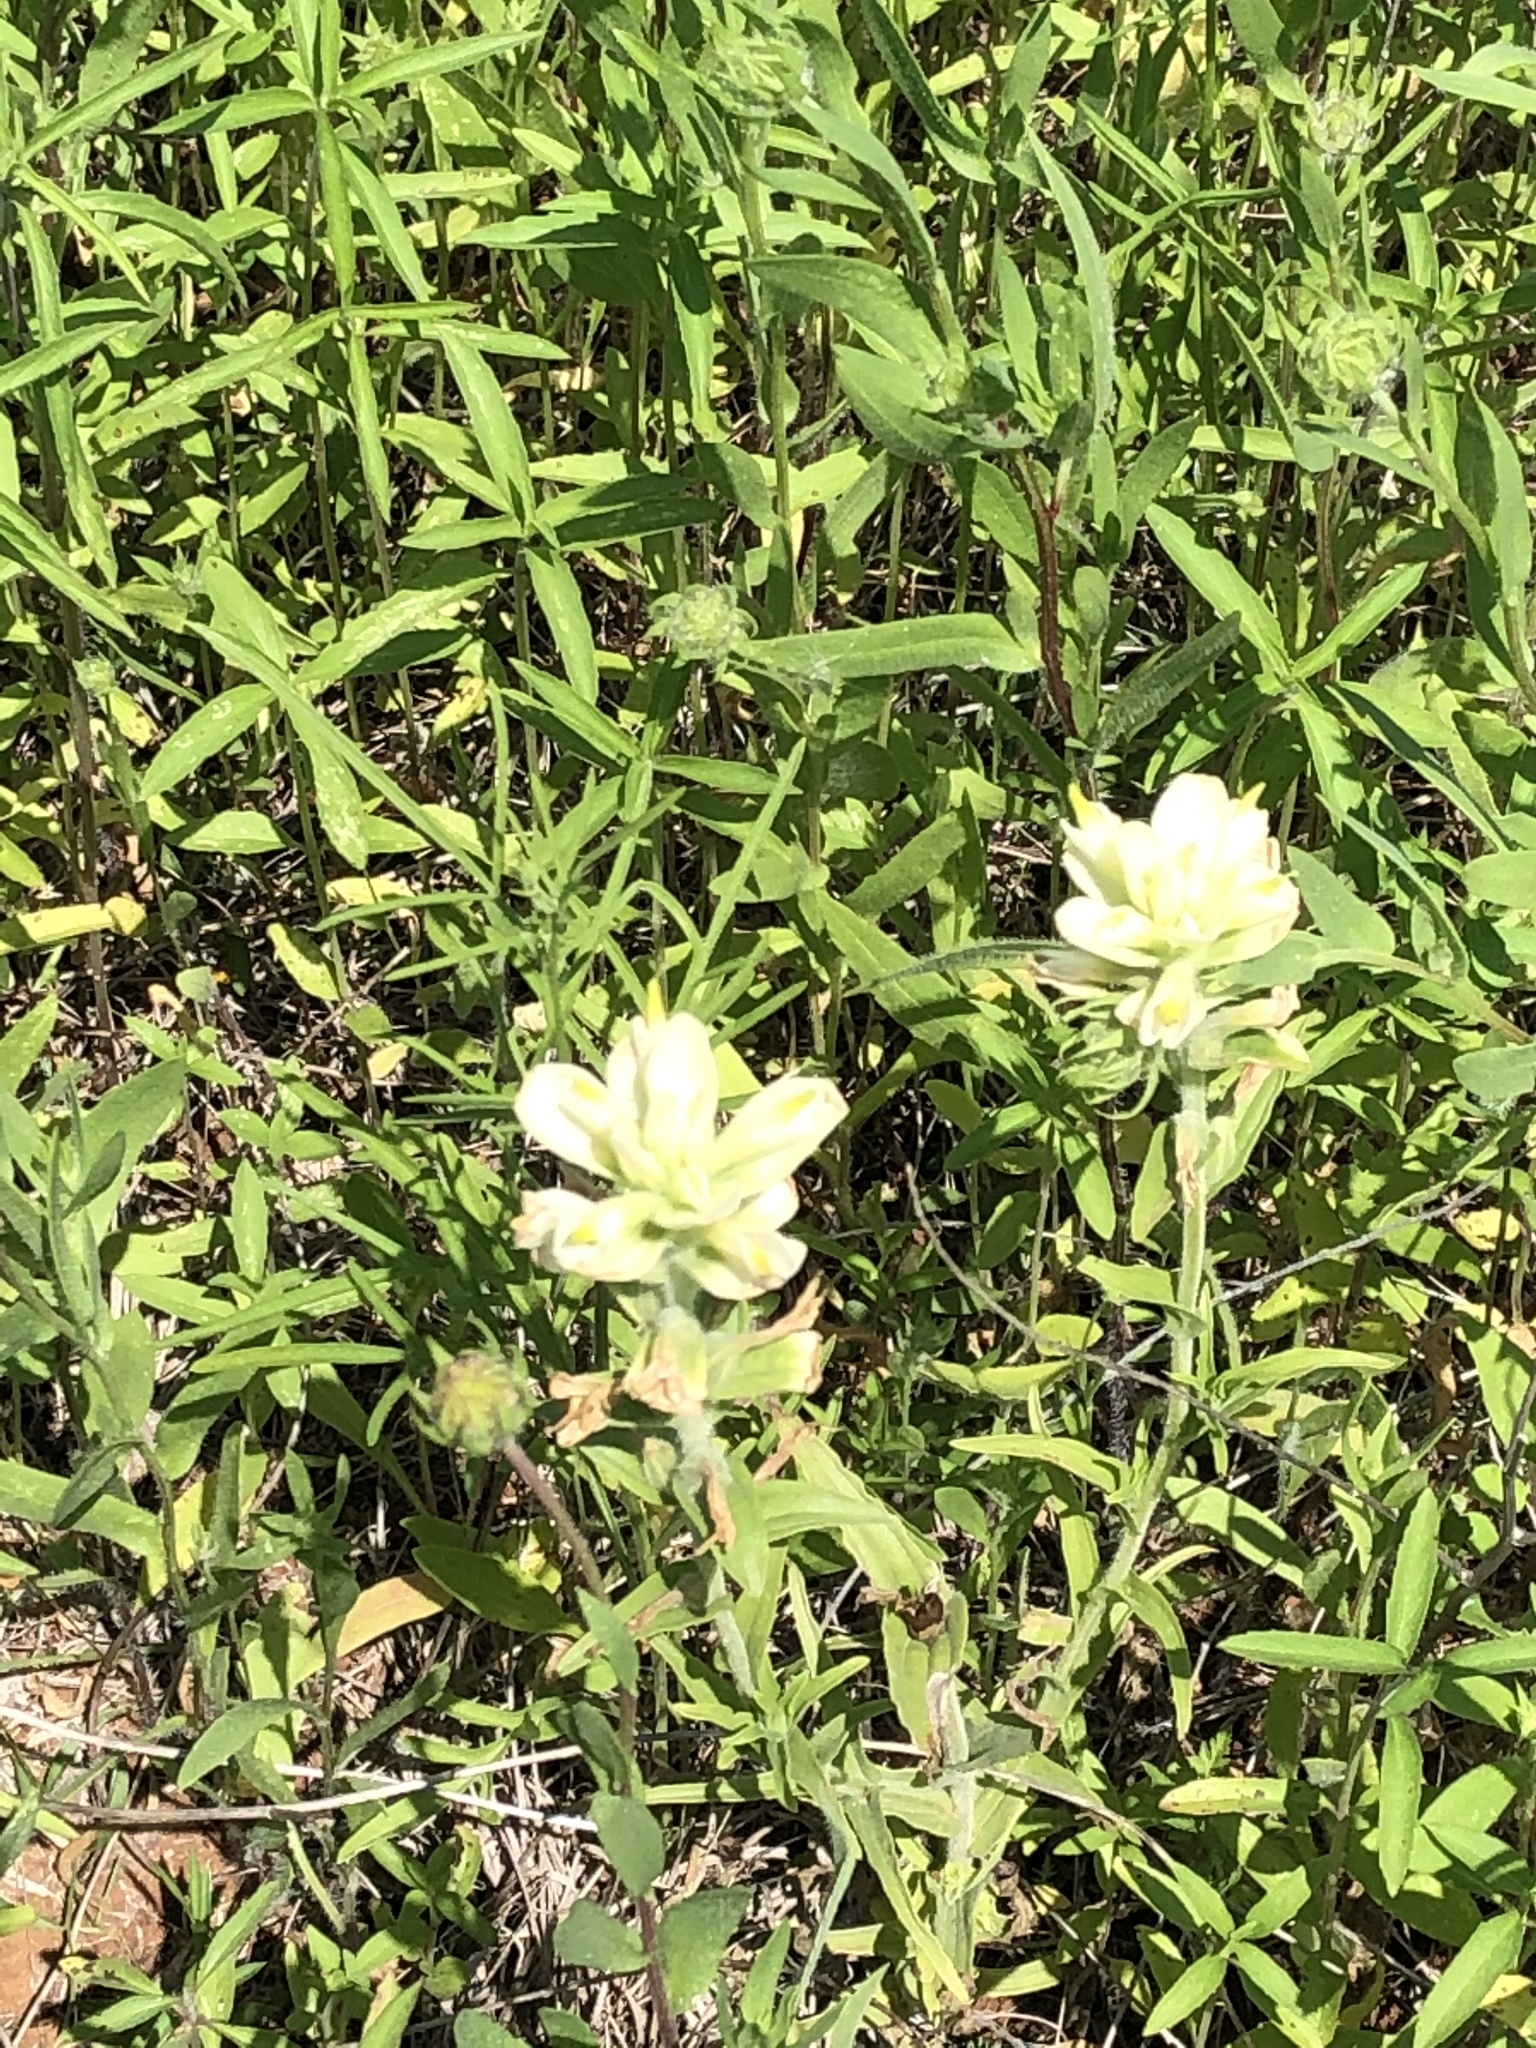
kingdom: Plantae
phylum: Tracheophyta
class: Magnoliopsida
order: Lamiales
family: Orobanchaceae
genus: Castilleja
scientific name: Castilleja indivisa
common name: Texas paintbrush
